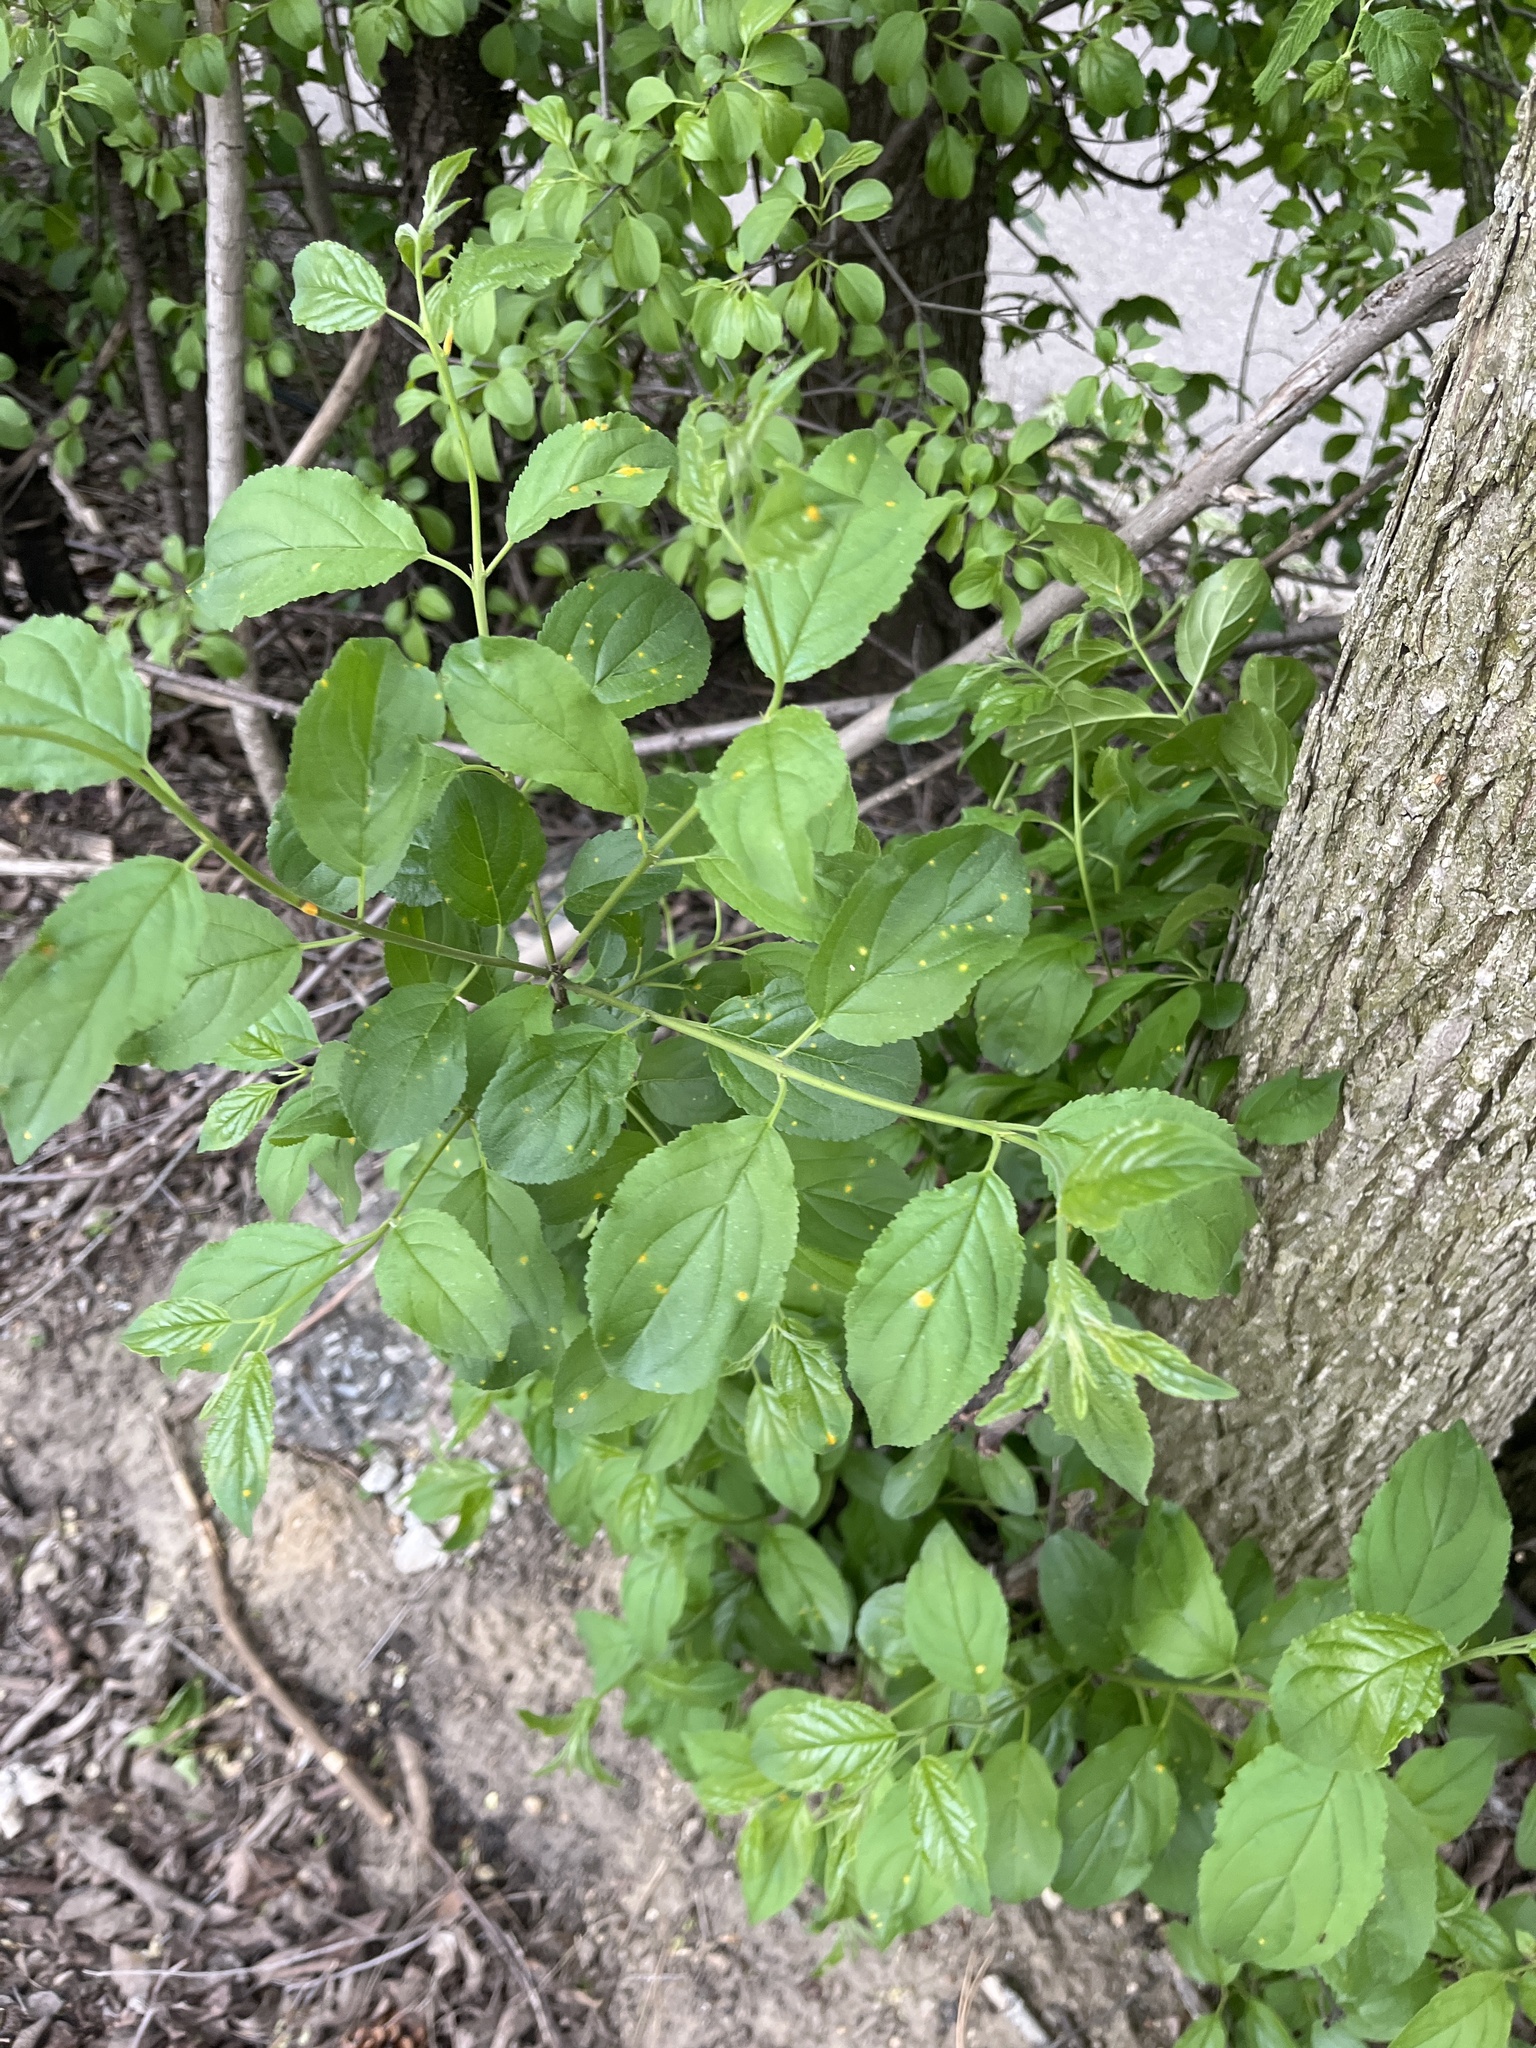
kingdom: Plantae
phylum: Tracheophyta
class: Magnoliopsida
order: Rosales
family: Rhamnaceae
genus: Rhamnus
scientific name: Rhamnus cathartica
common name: Common buckthorn
